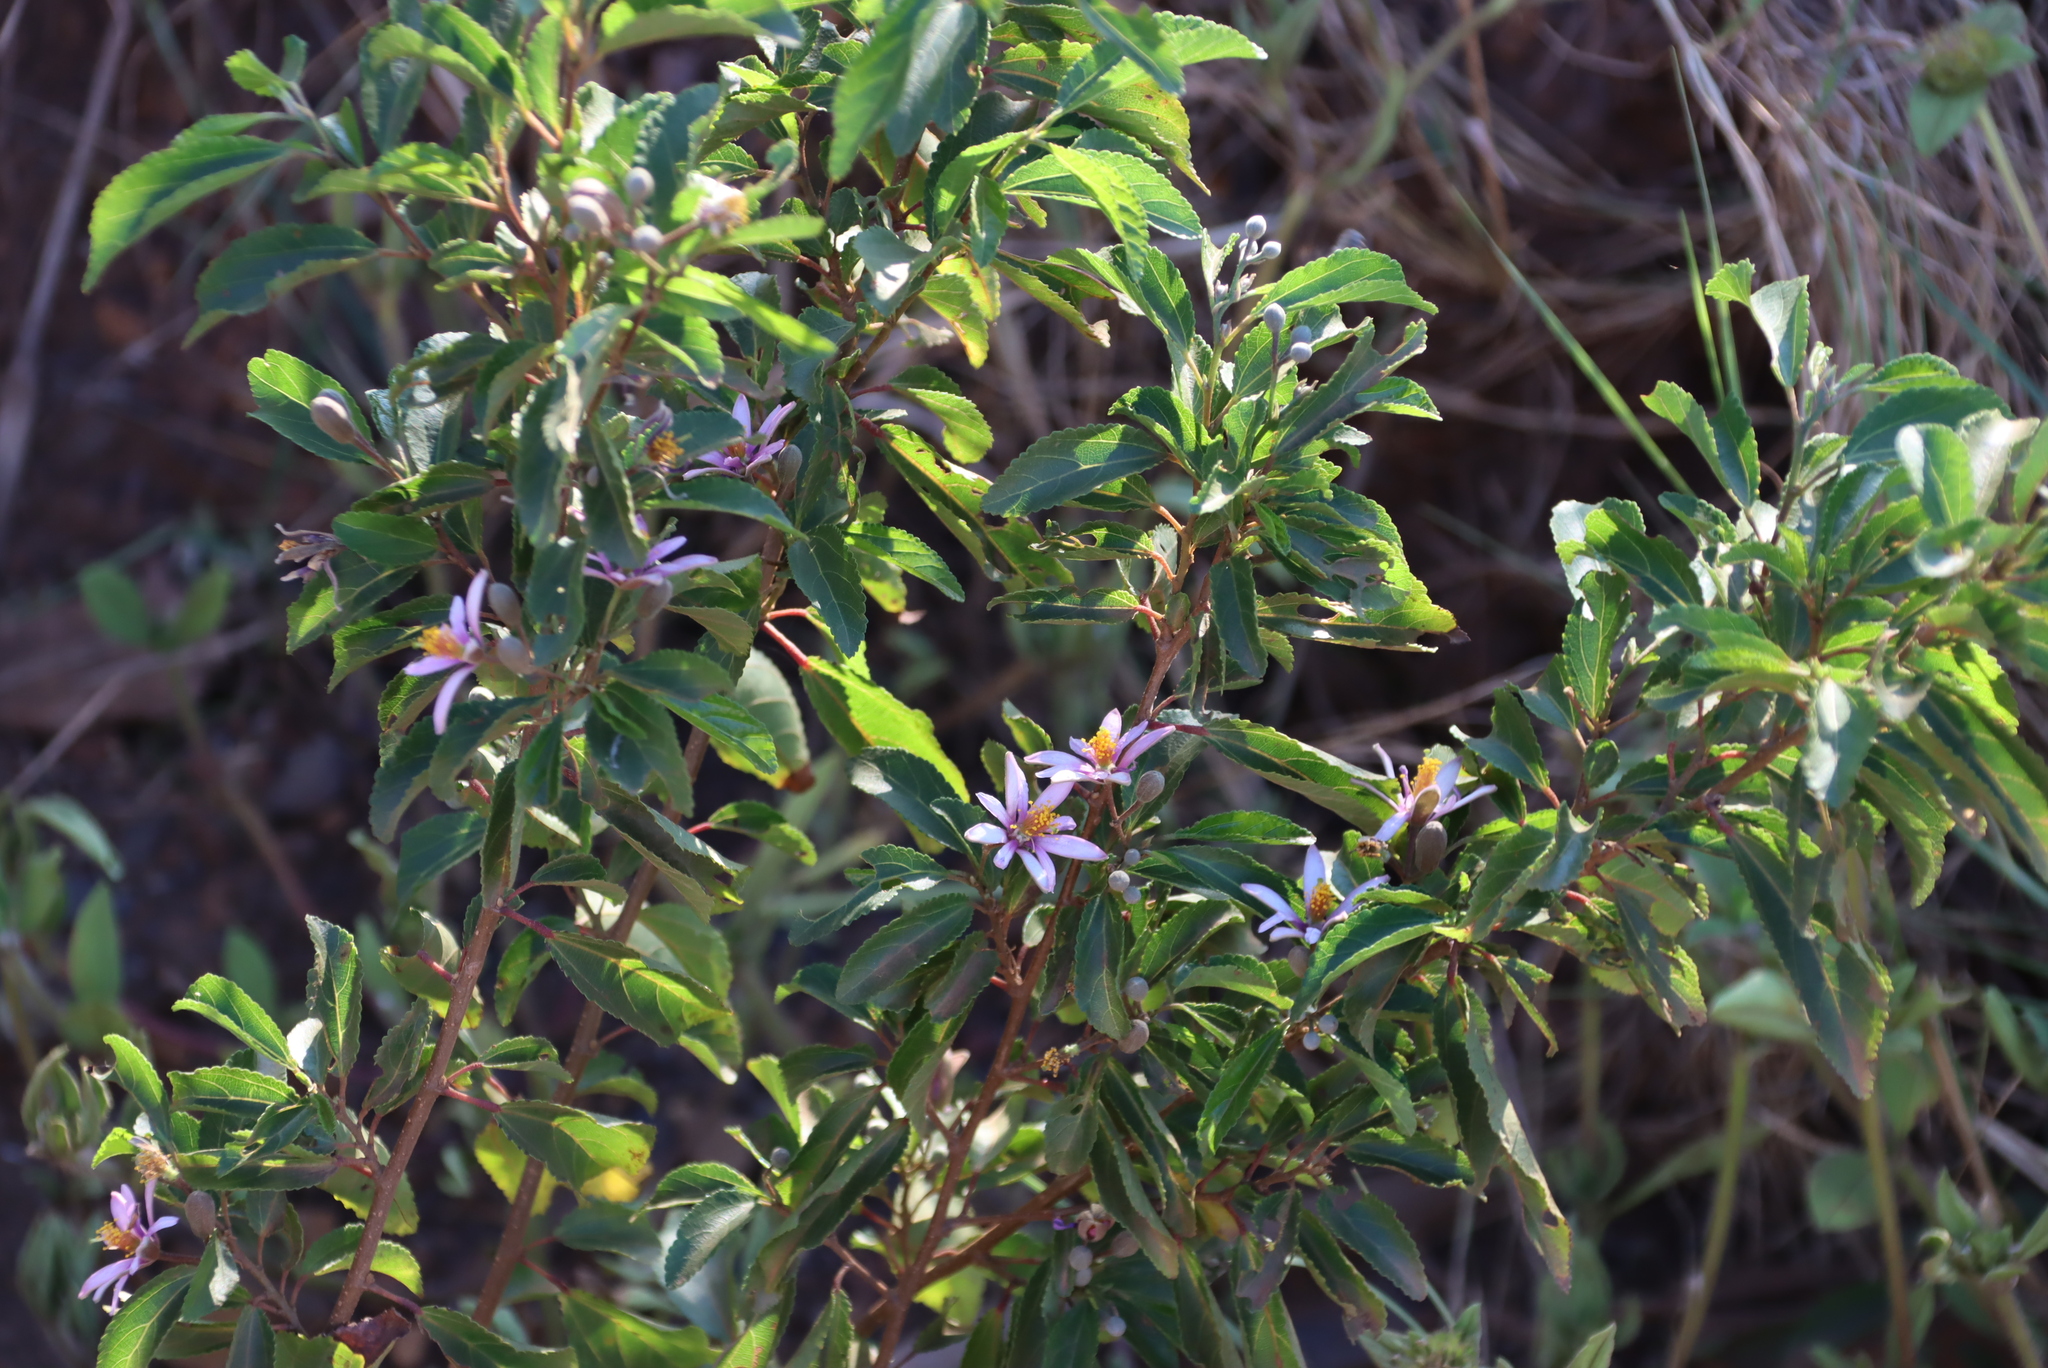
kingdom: Plantae
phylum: Tracheophyta
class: Magnoliopsida
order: Malvales
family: Malvaceae
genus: Grewia
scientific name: Grewia occidentalis
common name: Crossberry
